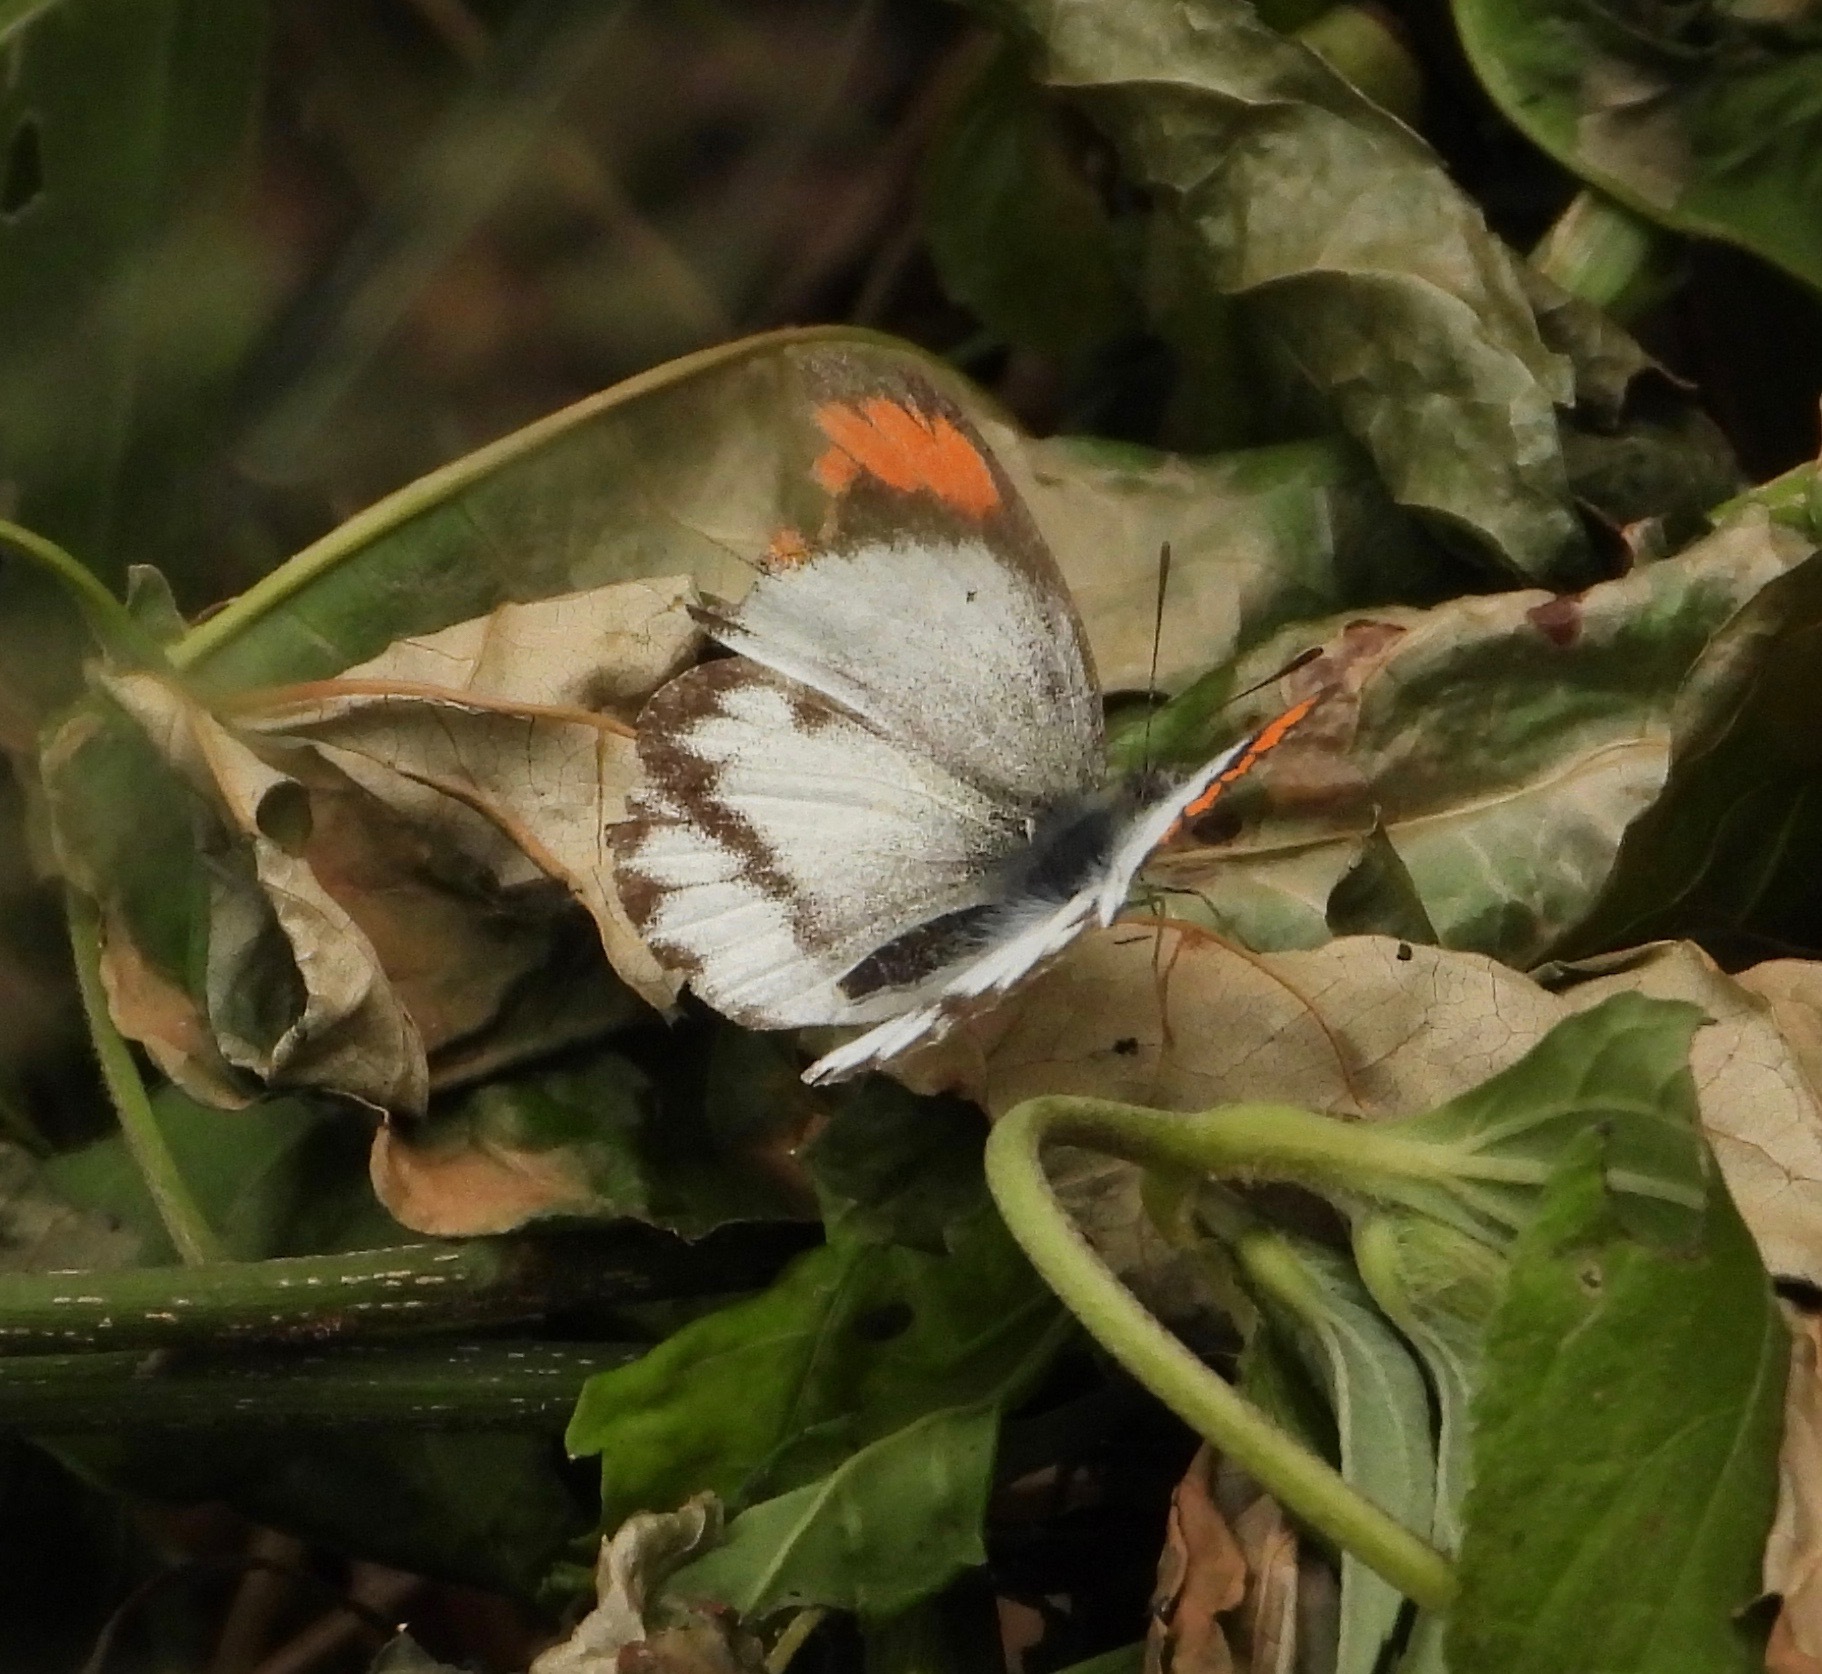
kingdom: Animalia
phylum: Arthropoda
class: Insecta
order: Lepidoptera
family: Pieridae
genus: Colotis
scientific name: Colotis euippe
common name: Round-winged orange tip
